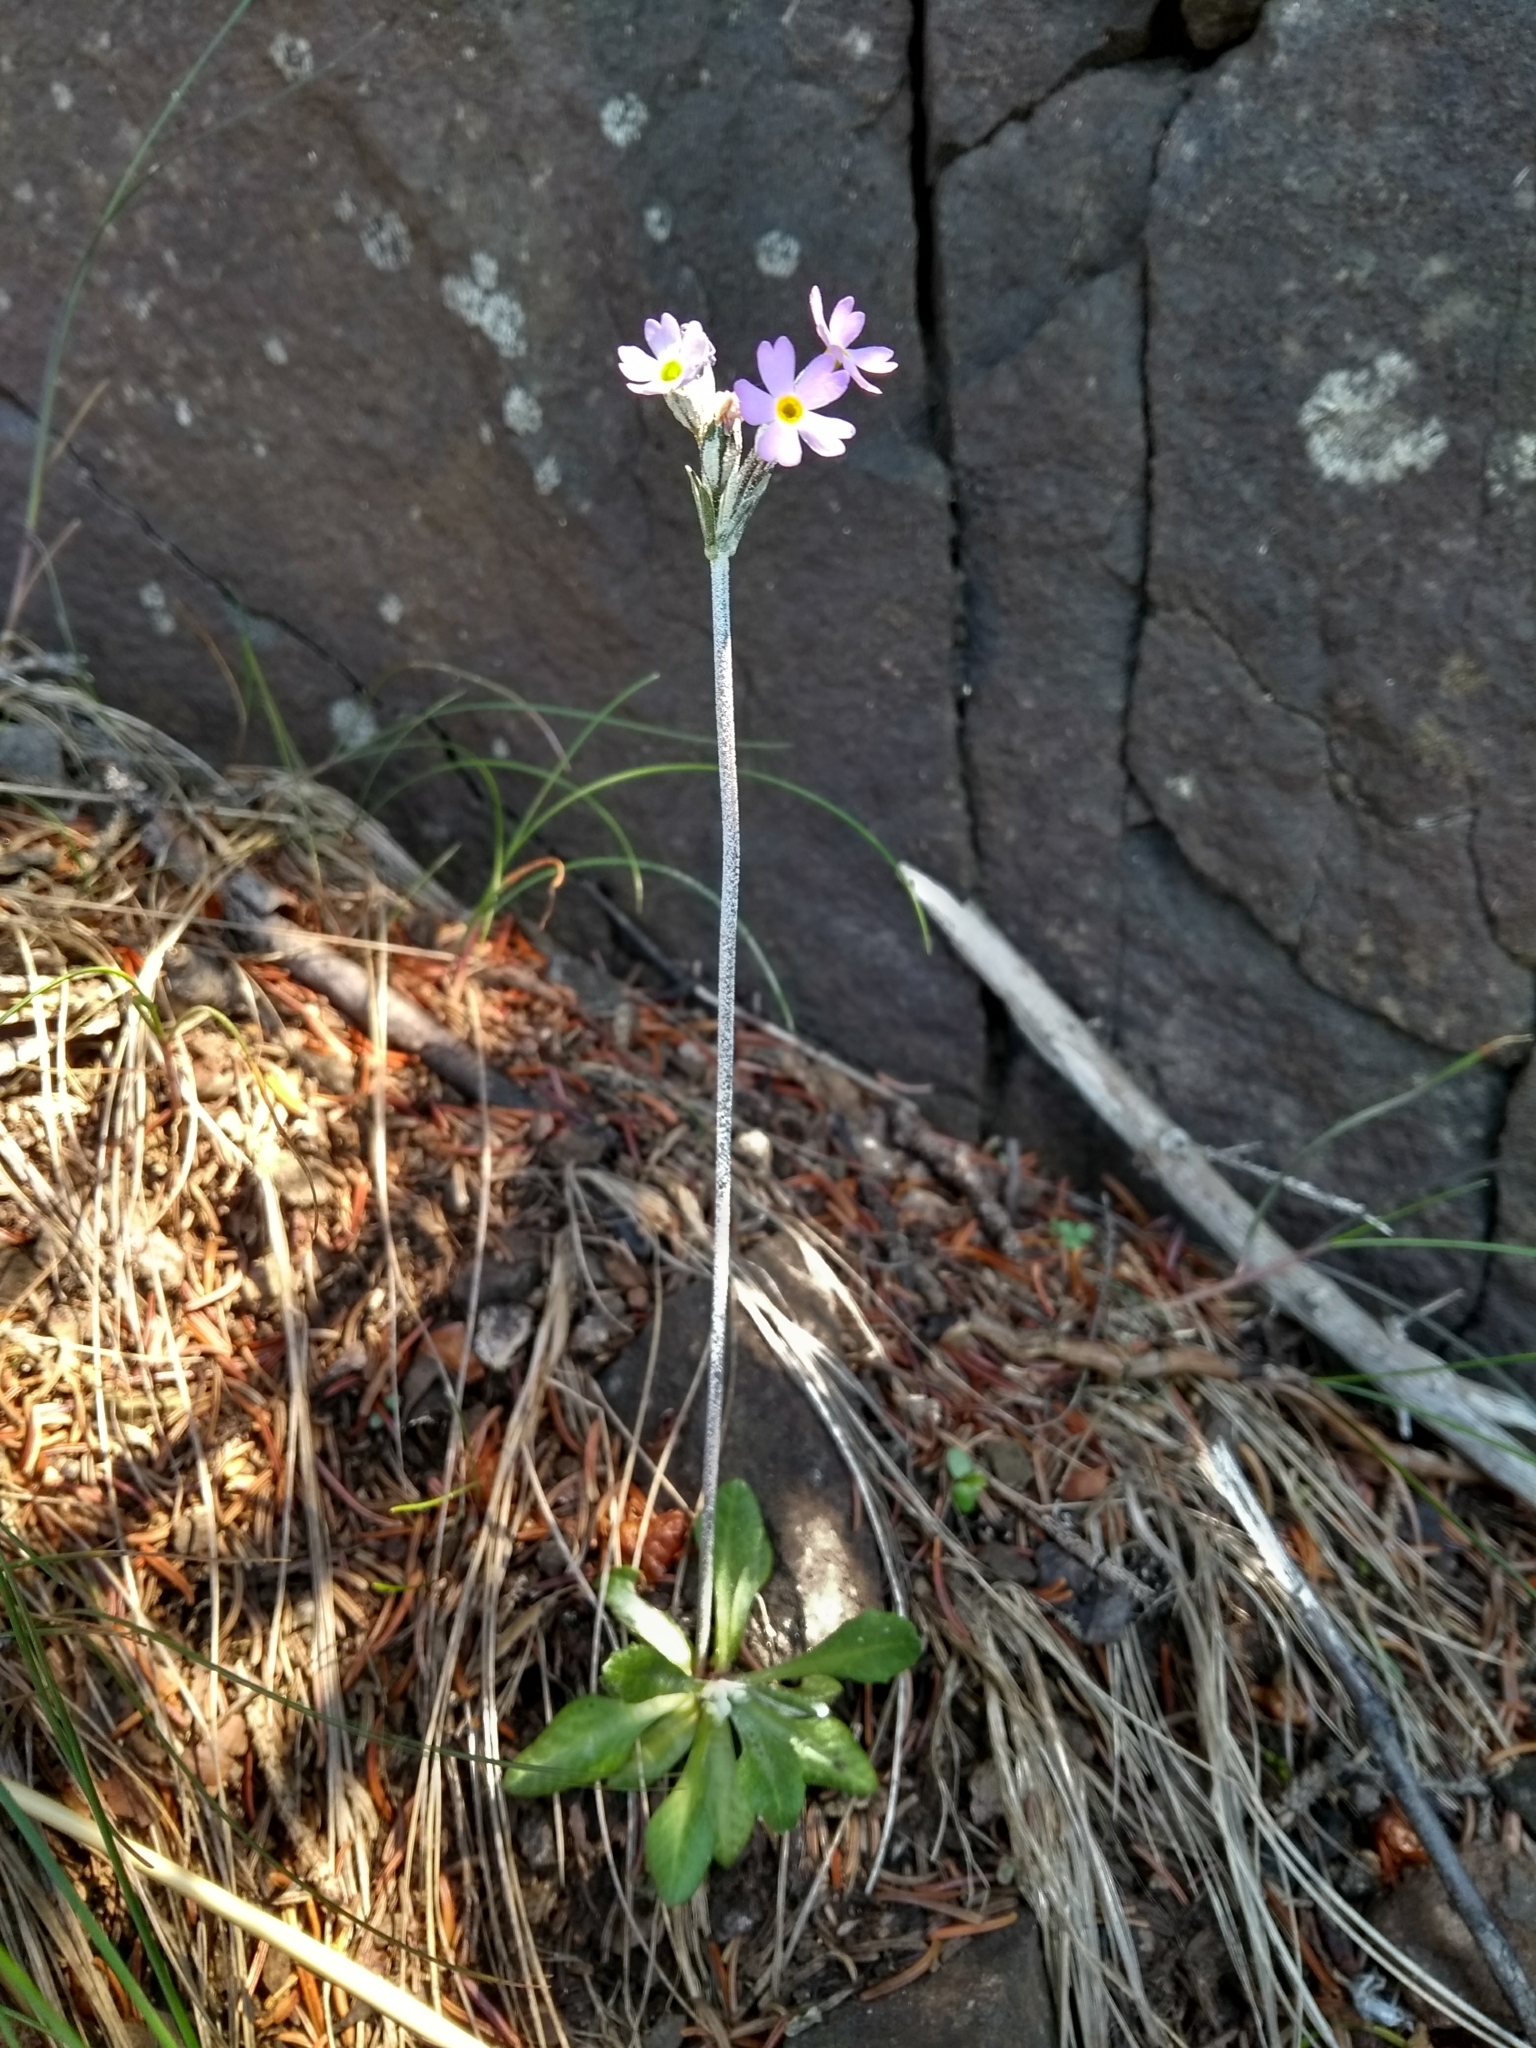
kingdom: Plantae
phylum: Tracheophyta
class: Magnoliopsida
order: Ericales
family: Primulaceae
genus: Primula
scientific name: Primula laurentiana
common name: Bird-eye primrose
